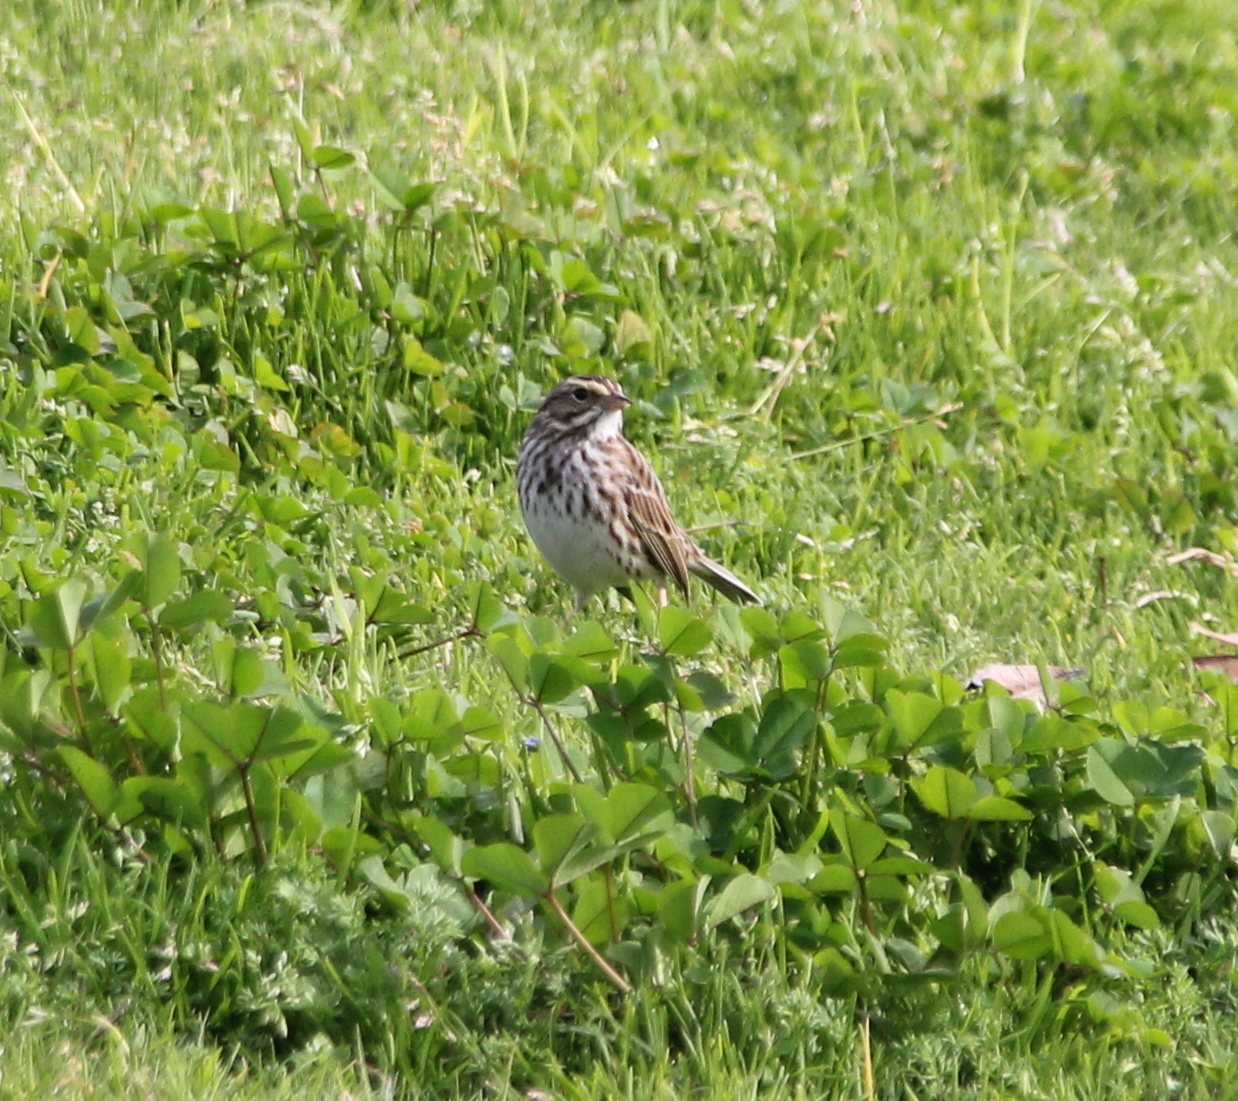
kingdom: Animalia
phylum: Chordata
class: Aves
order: Passeriformes
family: Passerellidae
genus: Passerculus
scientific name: Passerculus sandwichensis
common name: Savannah sparrow
